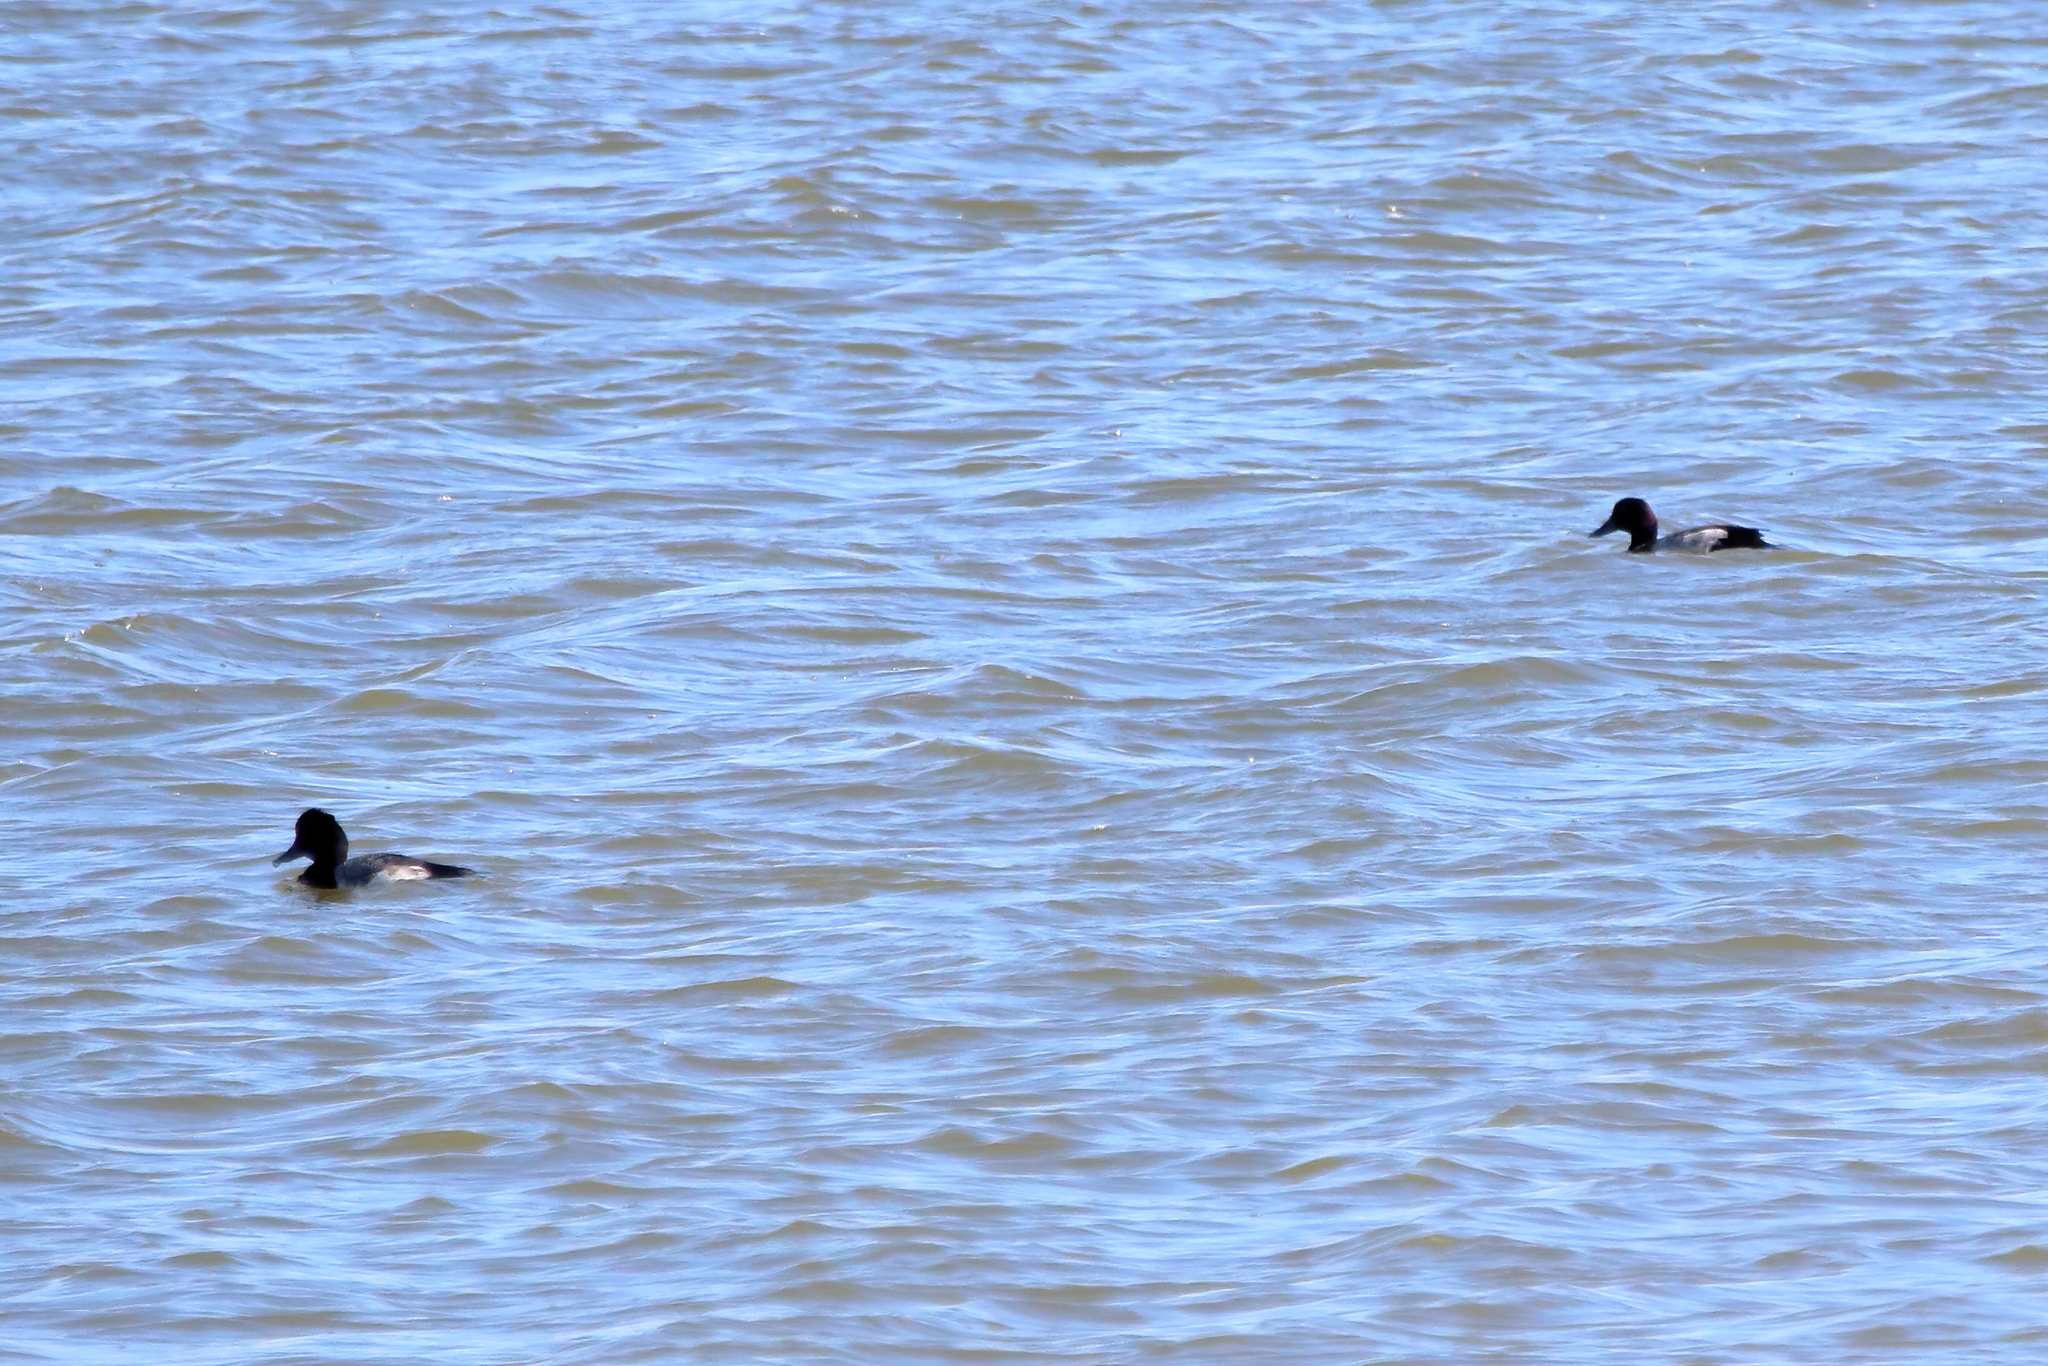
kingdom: Animalia
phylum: Chordata
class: Aves
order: Anseriformes
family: Anatidae
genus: Aythya
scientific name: Aythya marila
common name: Greater scaup
